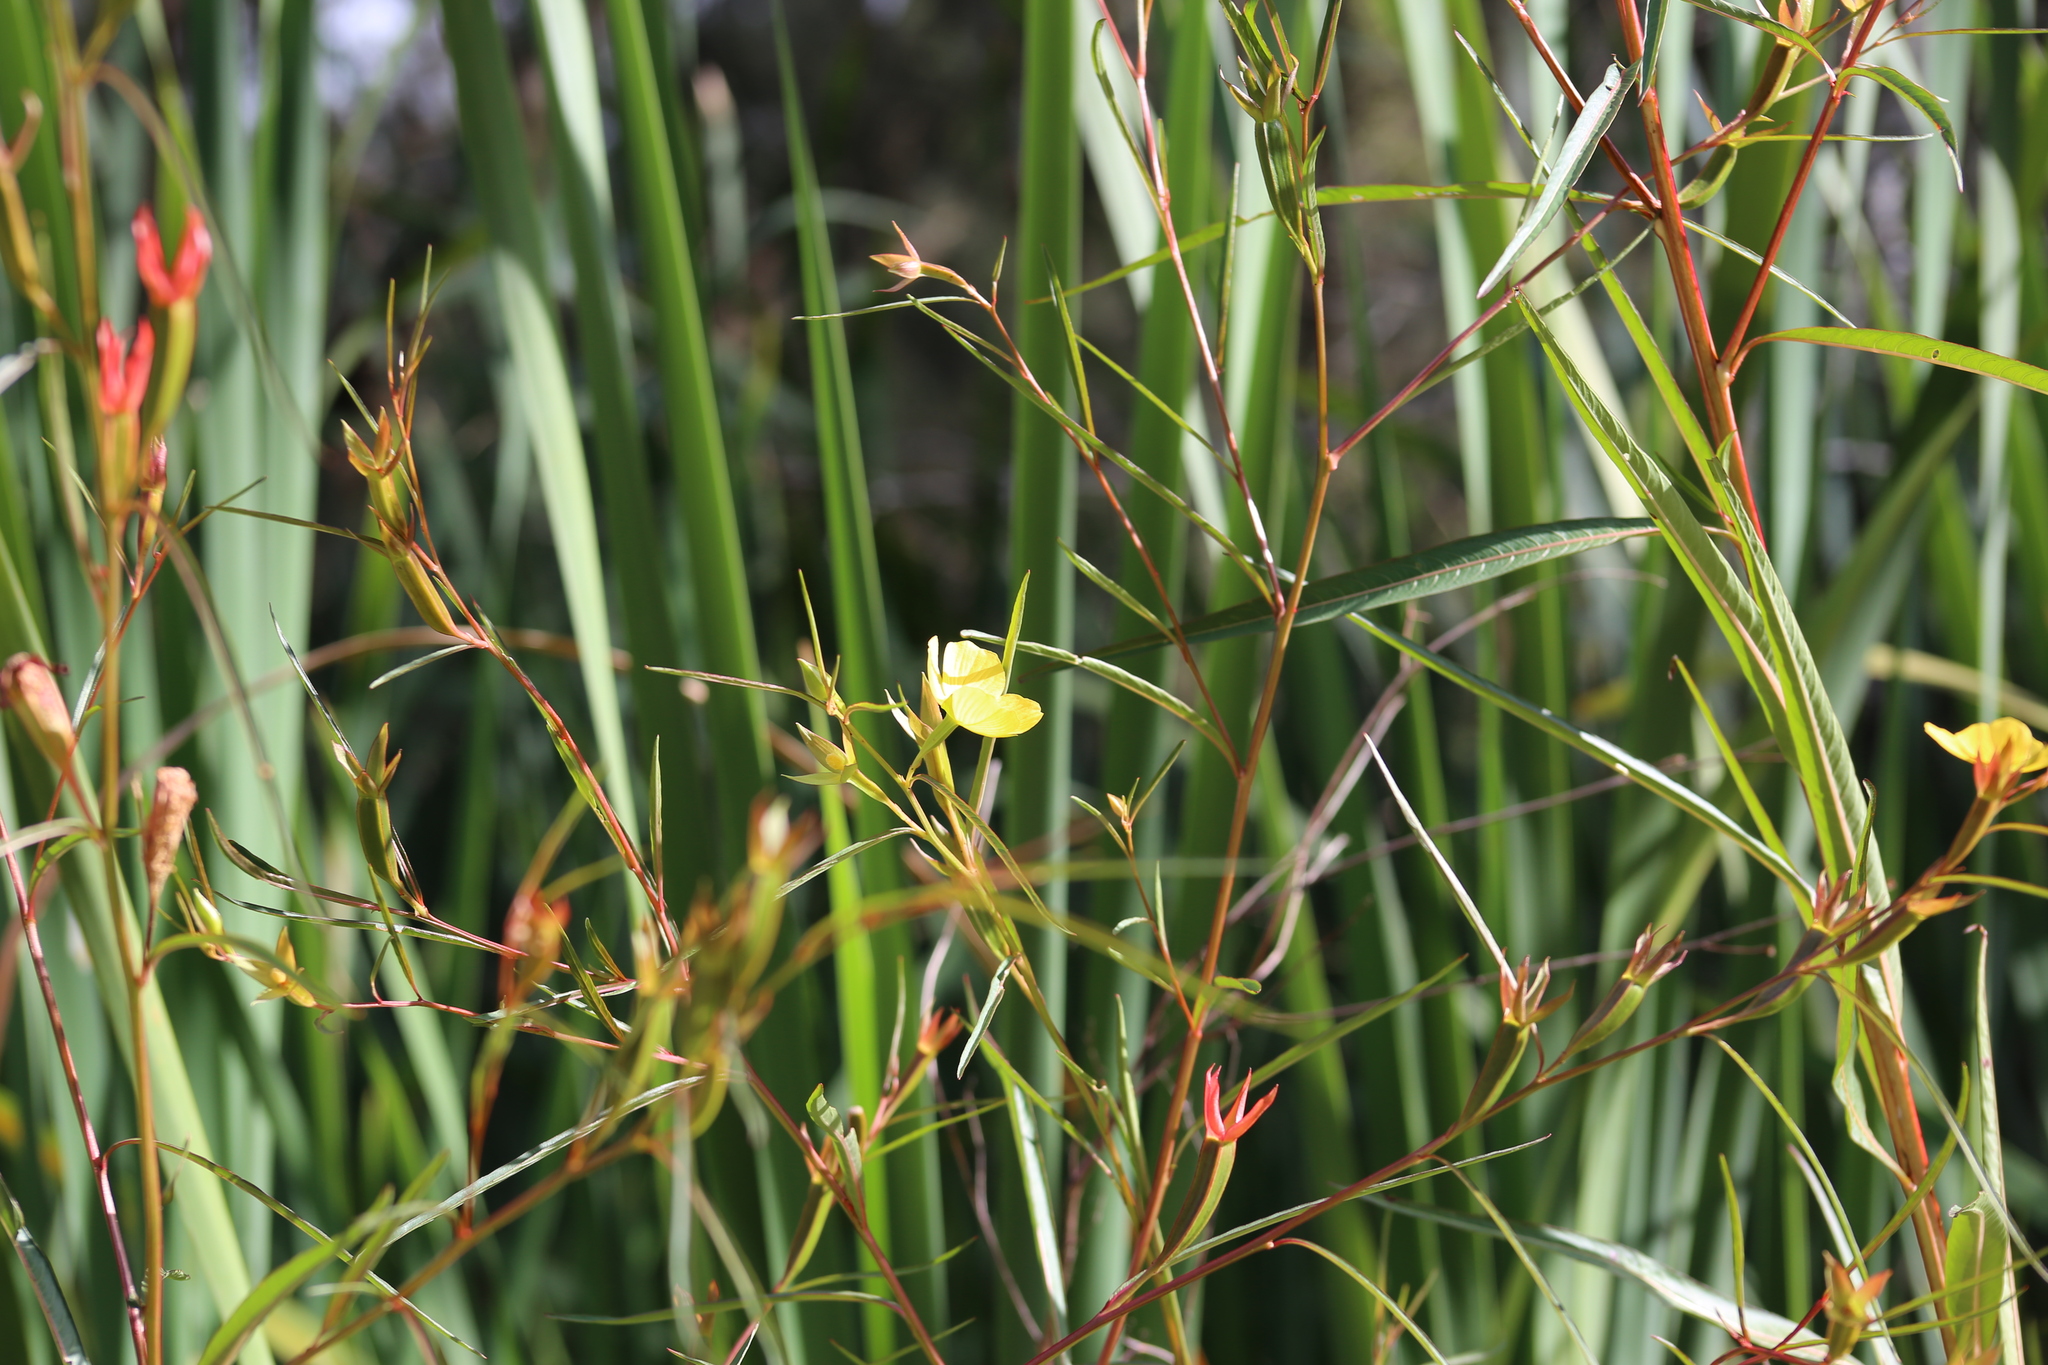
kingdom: Plantae
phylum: Tracheophyta
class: Magnoliopsida
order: Myrtales
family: Onagraceae
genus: Ludwigia
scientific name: Ludwigia longifolia
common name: Longleaf primrose-willow
